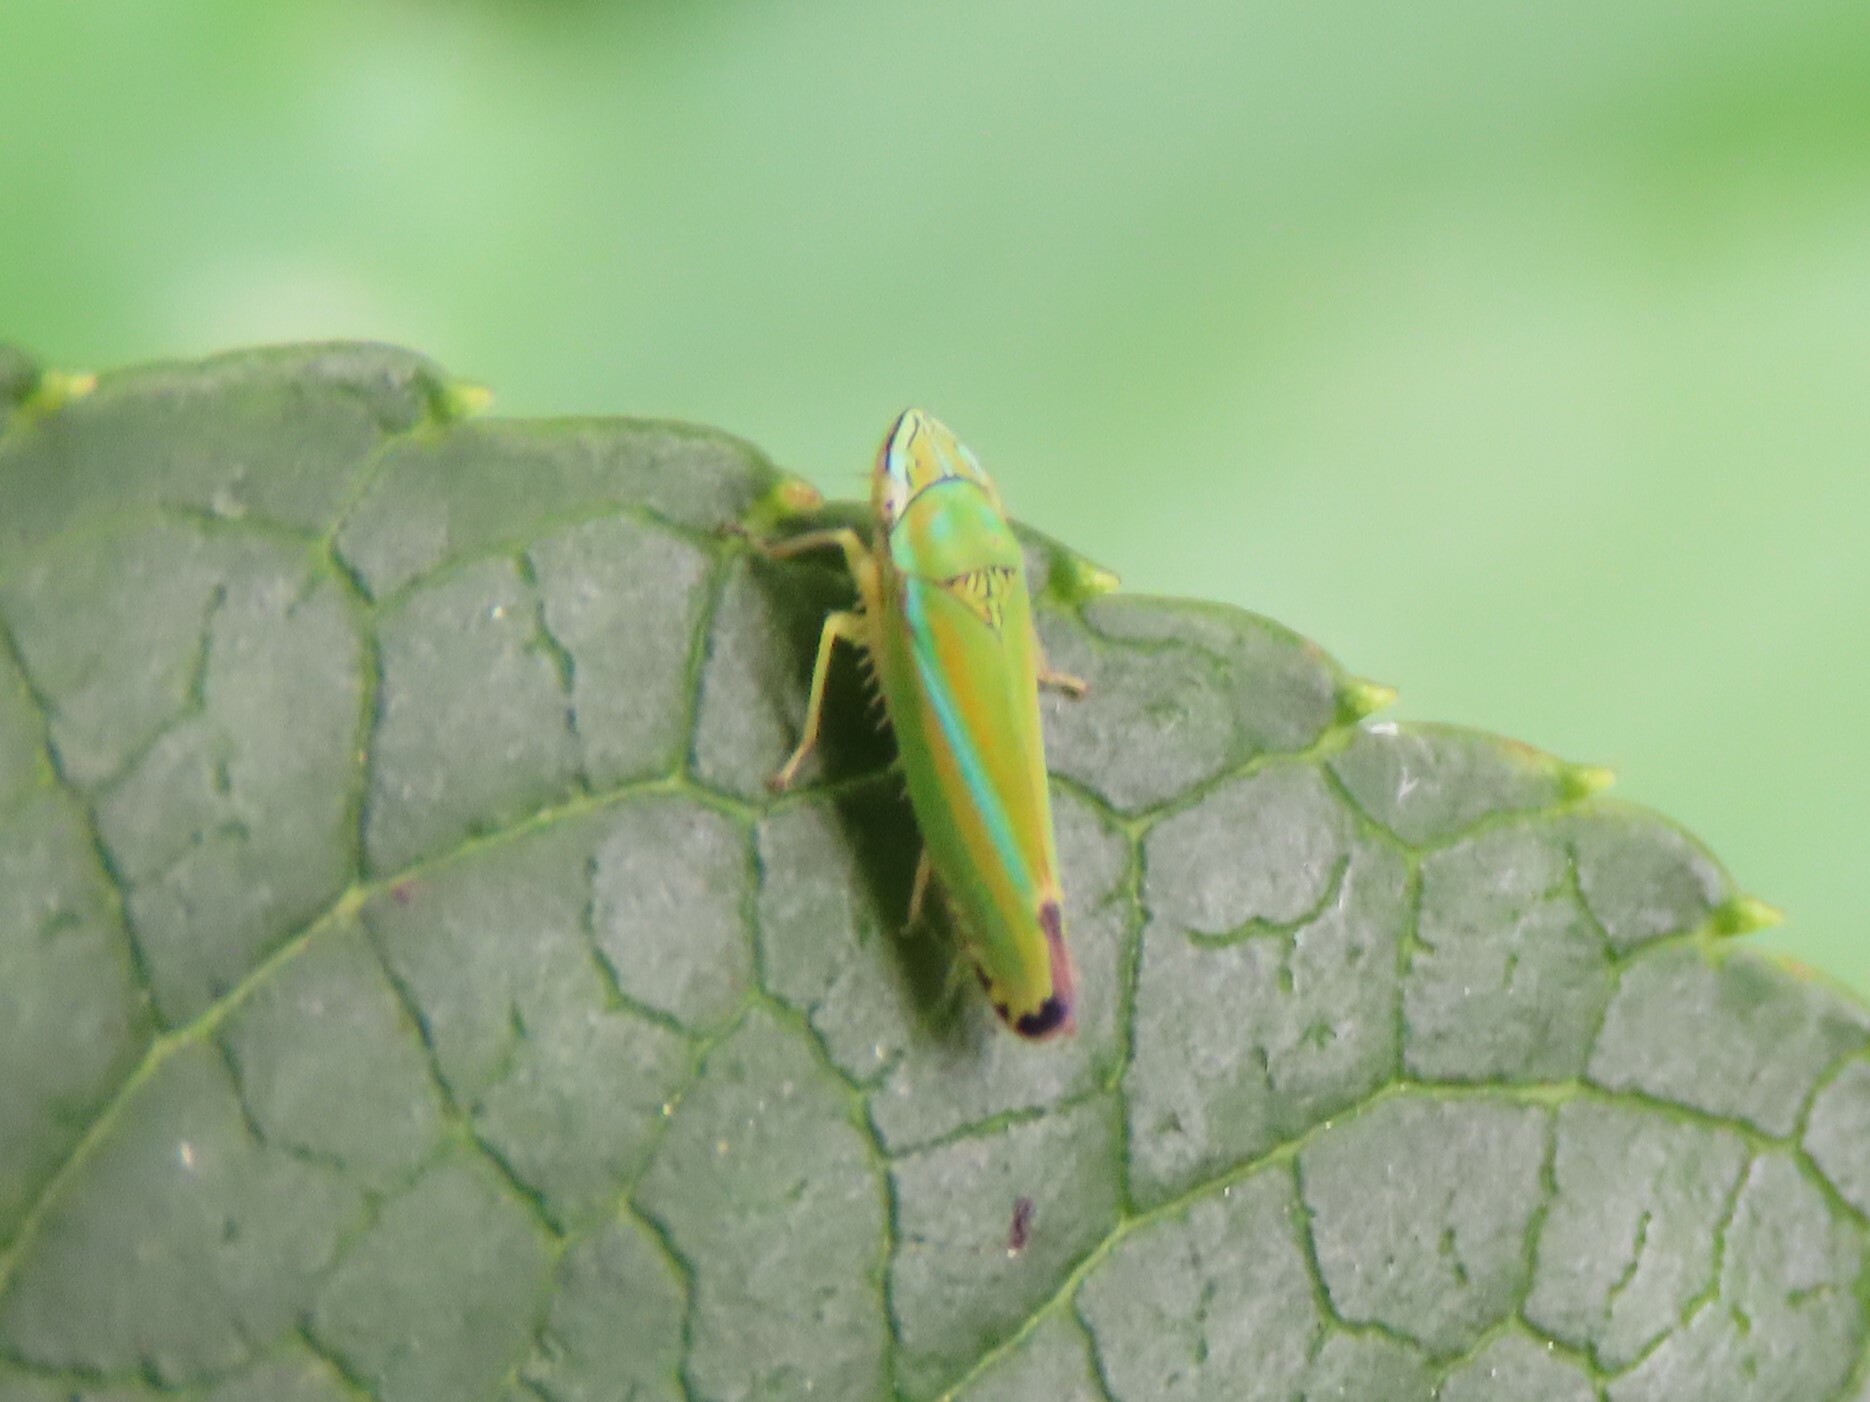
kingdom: Animalia
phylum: Arthropoda
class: Insecta
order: Hemiptera
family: Cicadellidae
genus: Graphocephala
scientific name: Graphocephala versuta
